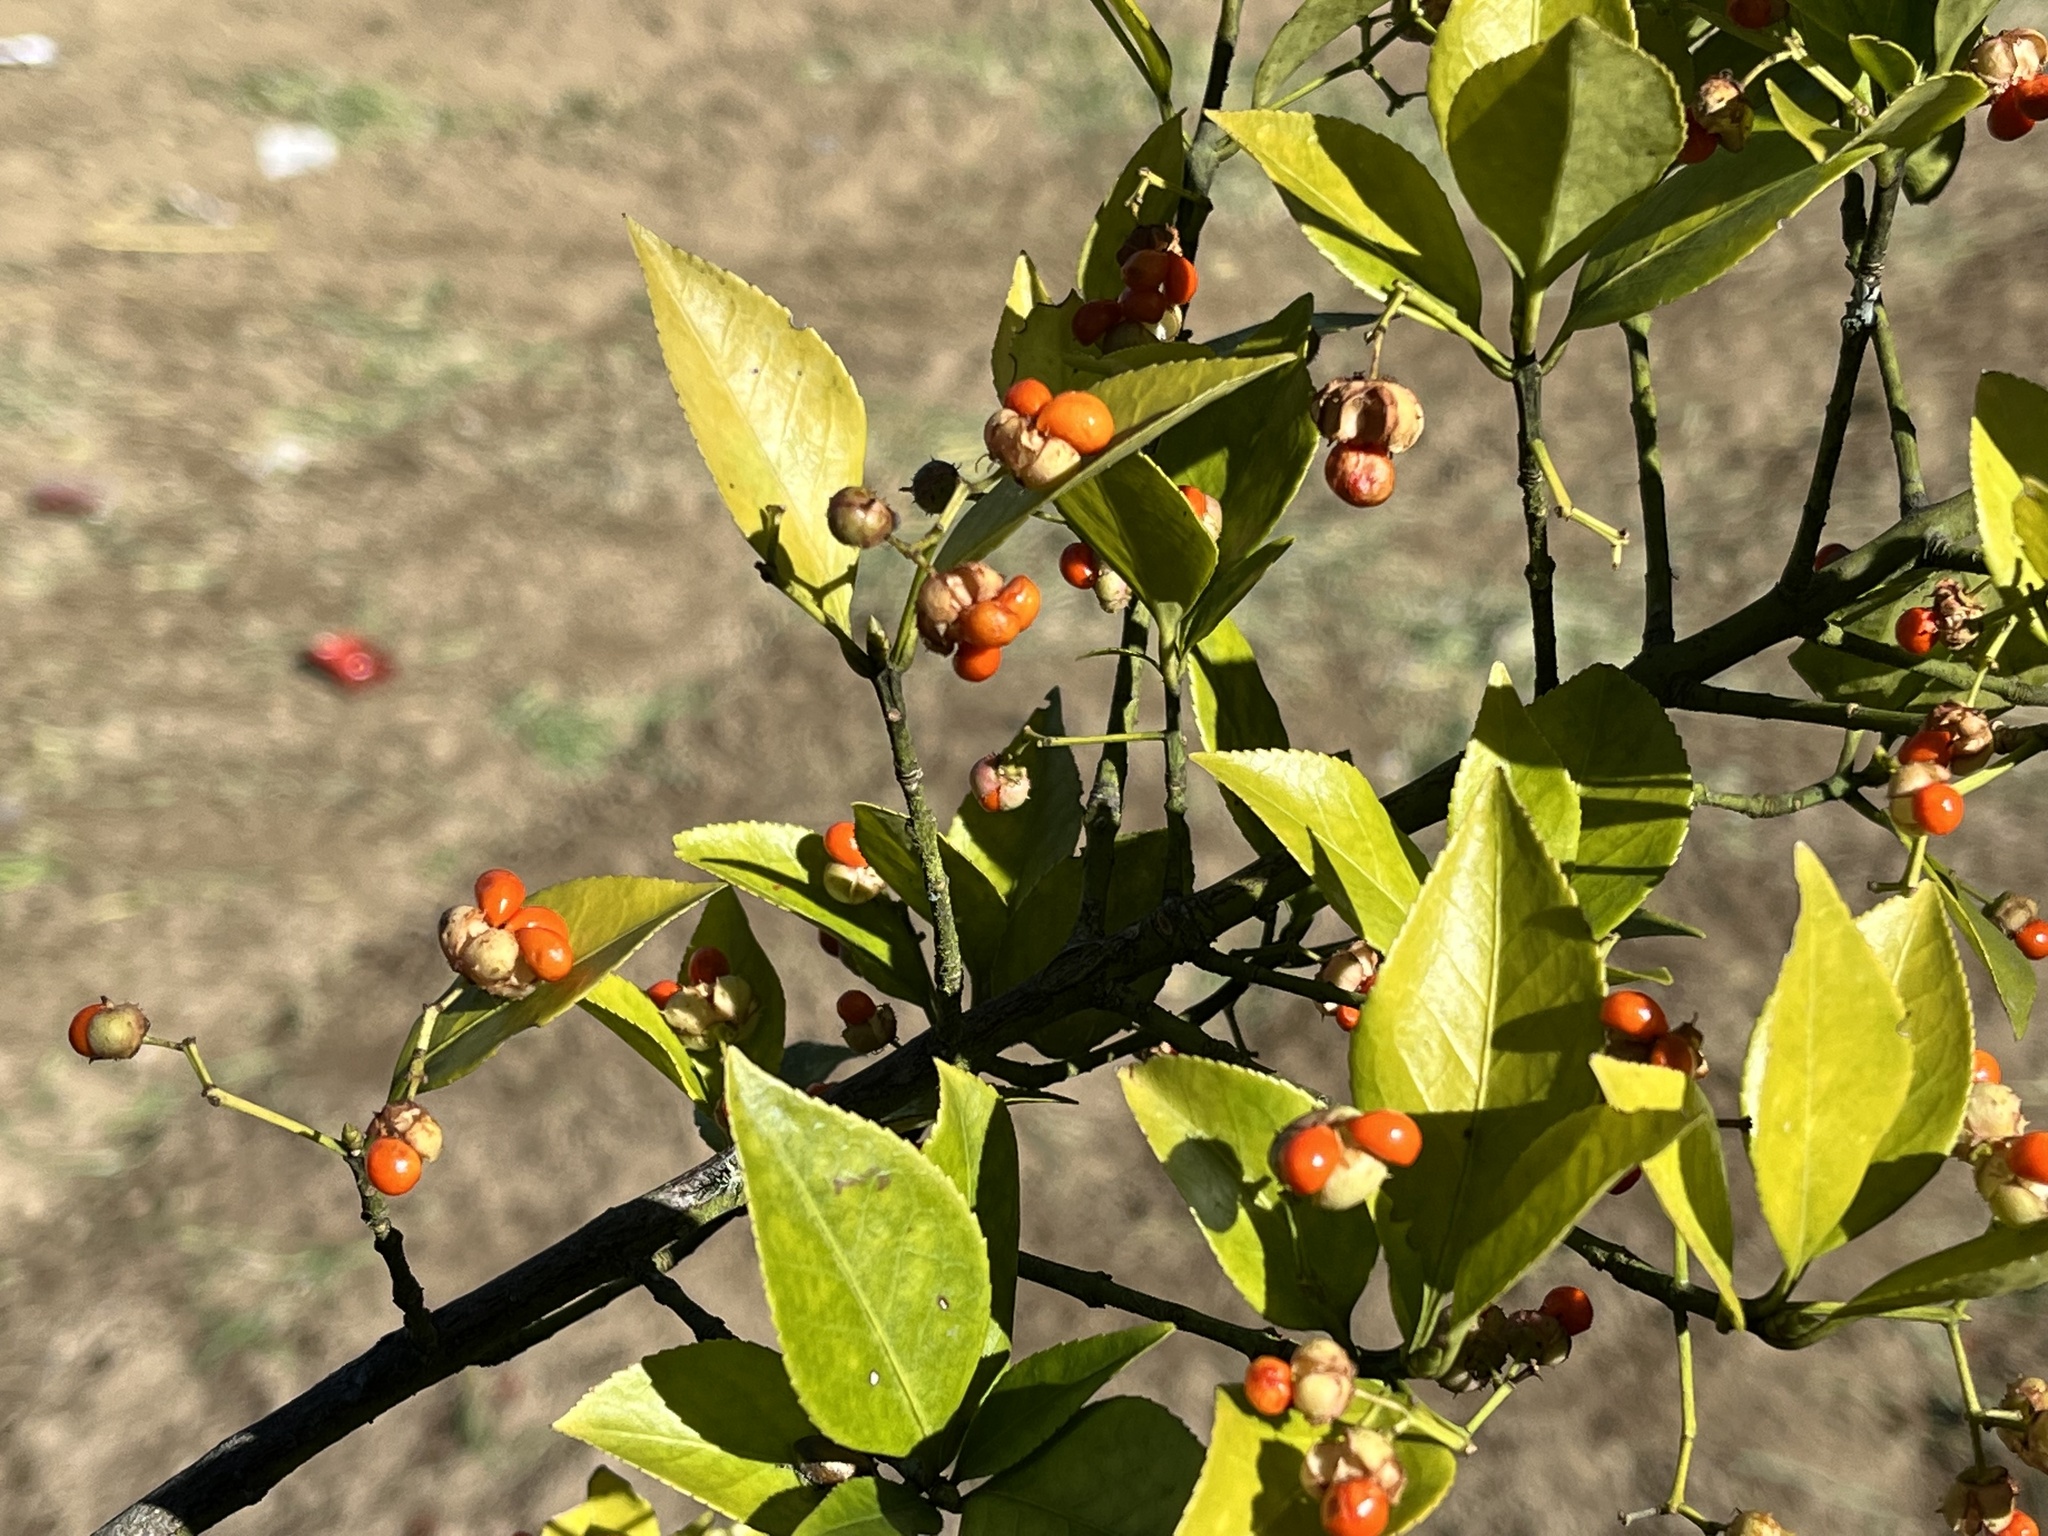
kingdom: Plantae
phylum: Tracheophyta
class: Magnoliopsida
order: Celastrales
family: Celastraceae
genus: Euonymus
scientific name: Euonymus spraguei
